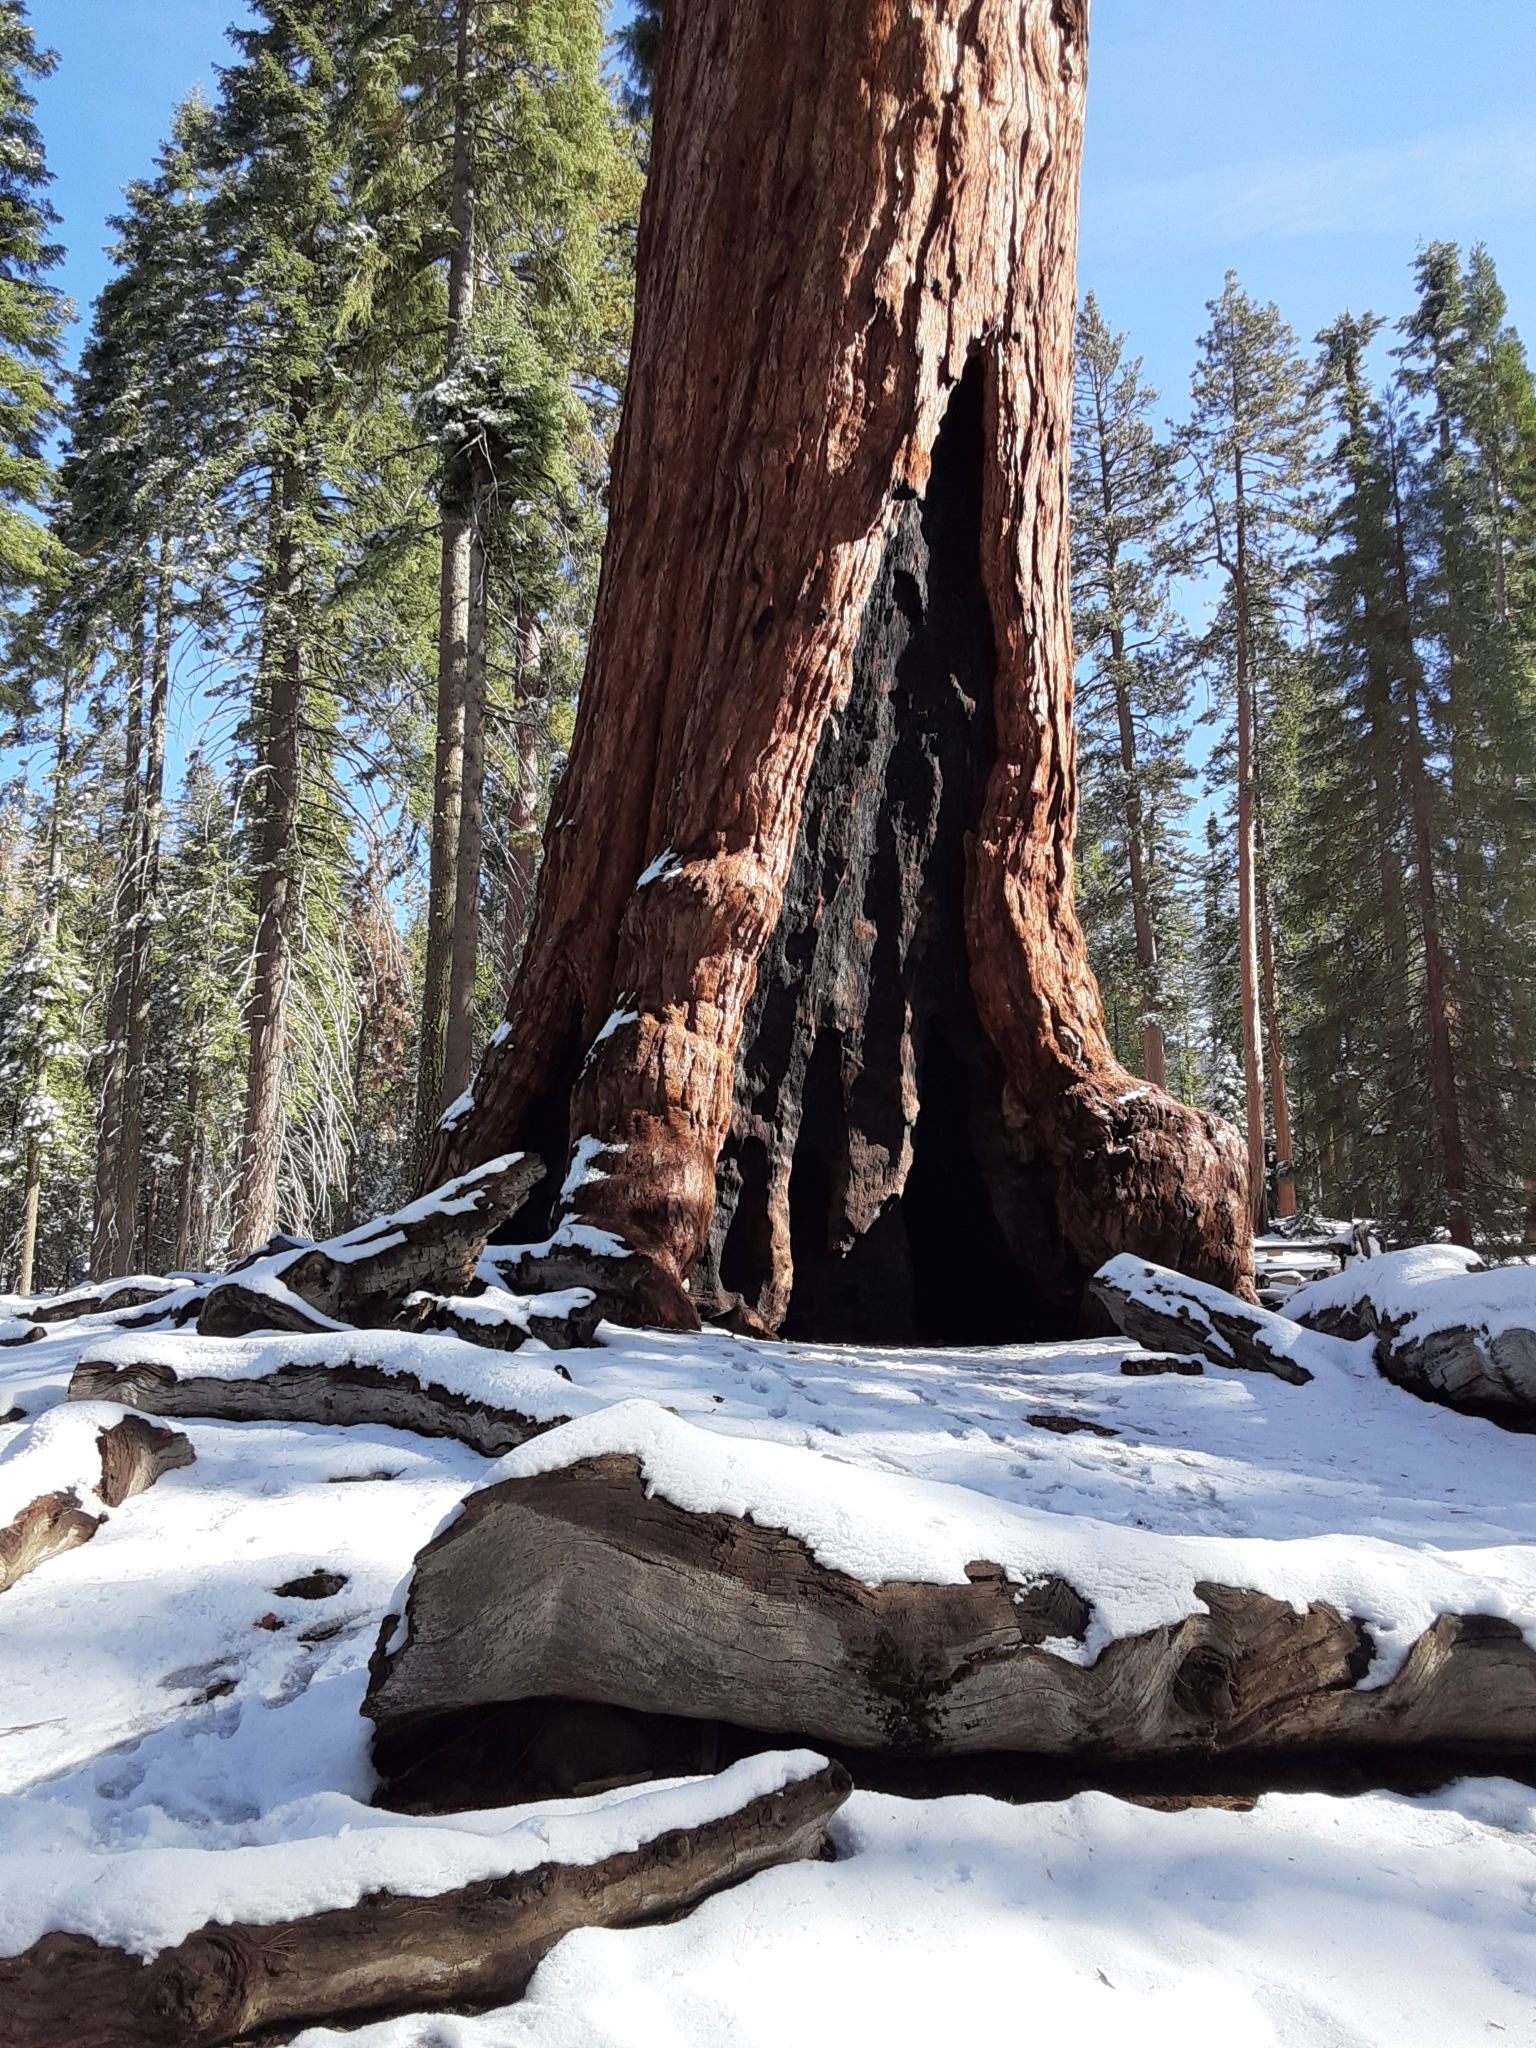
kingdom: Plantae
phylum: Tracheophyta
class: Pinopsida
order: Pinales
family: Cupressaceae
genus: Sequoiadendron
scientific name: Sequoiadendron giganteum
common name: Wellingtonia
